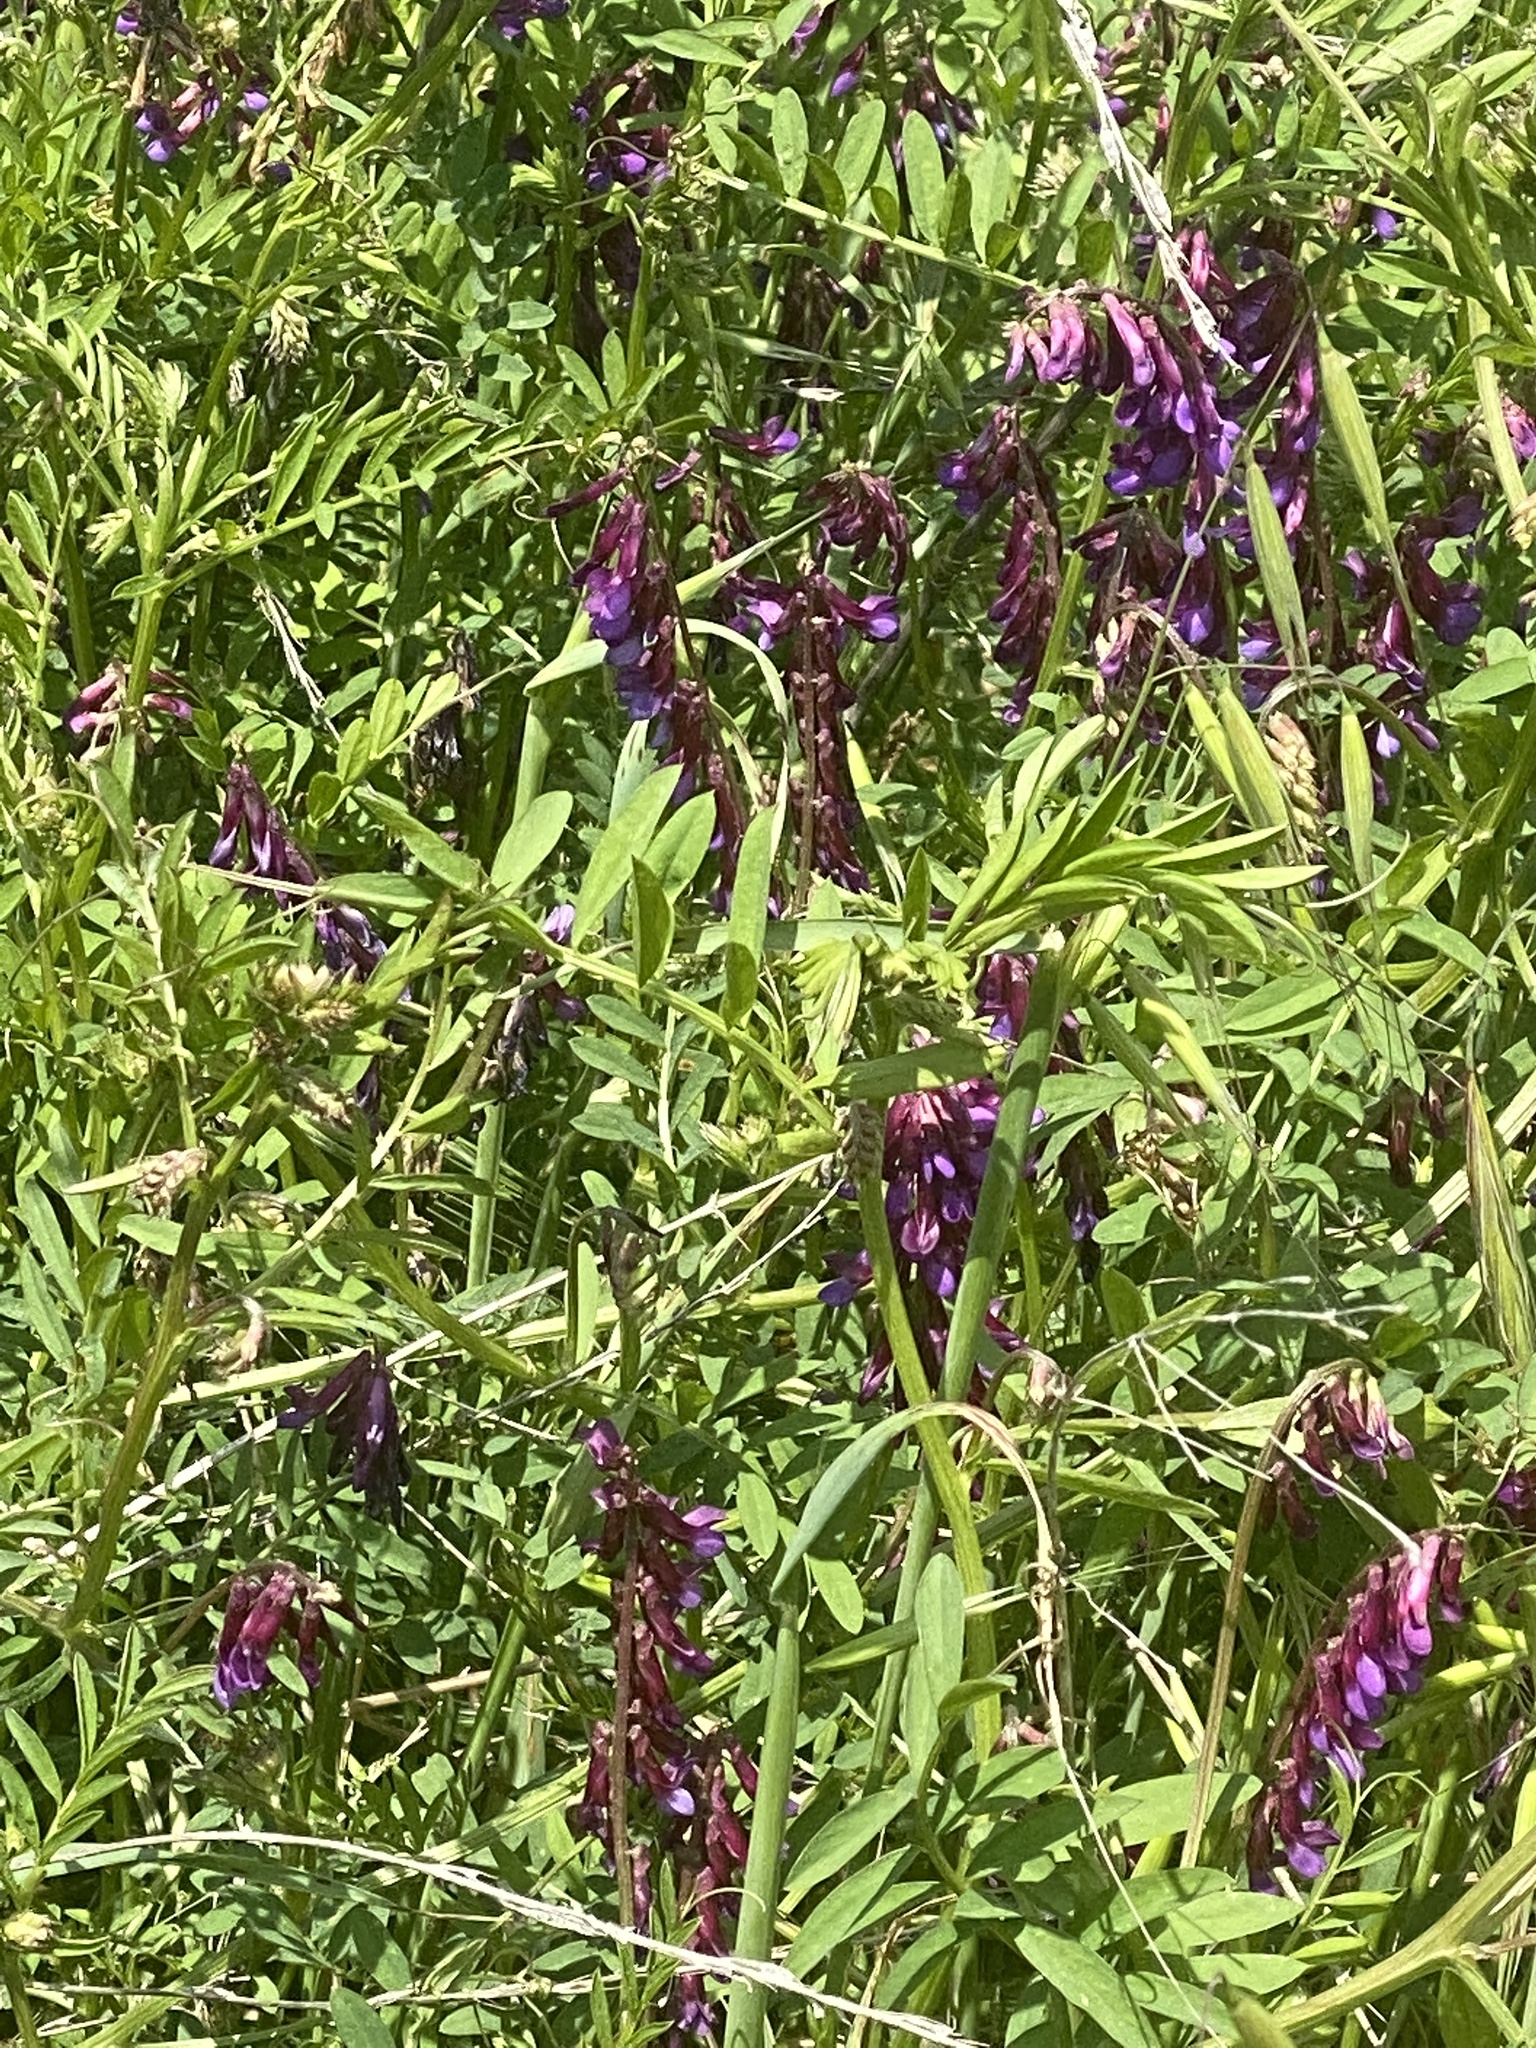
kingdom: Plantae
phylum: Tracheophyta
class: Magnoliopsida
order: Fabales
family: Fabaceae
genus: Vicia
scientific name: Vicia villosa
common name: Fodder vetch
